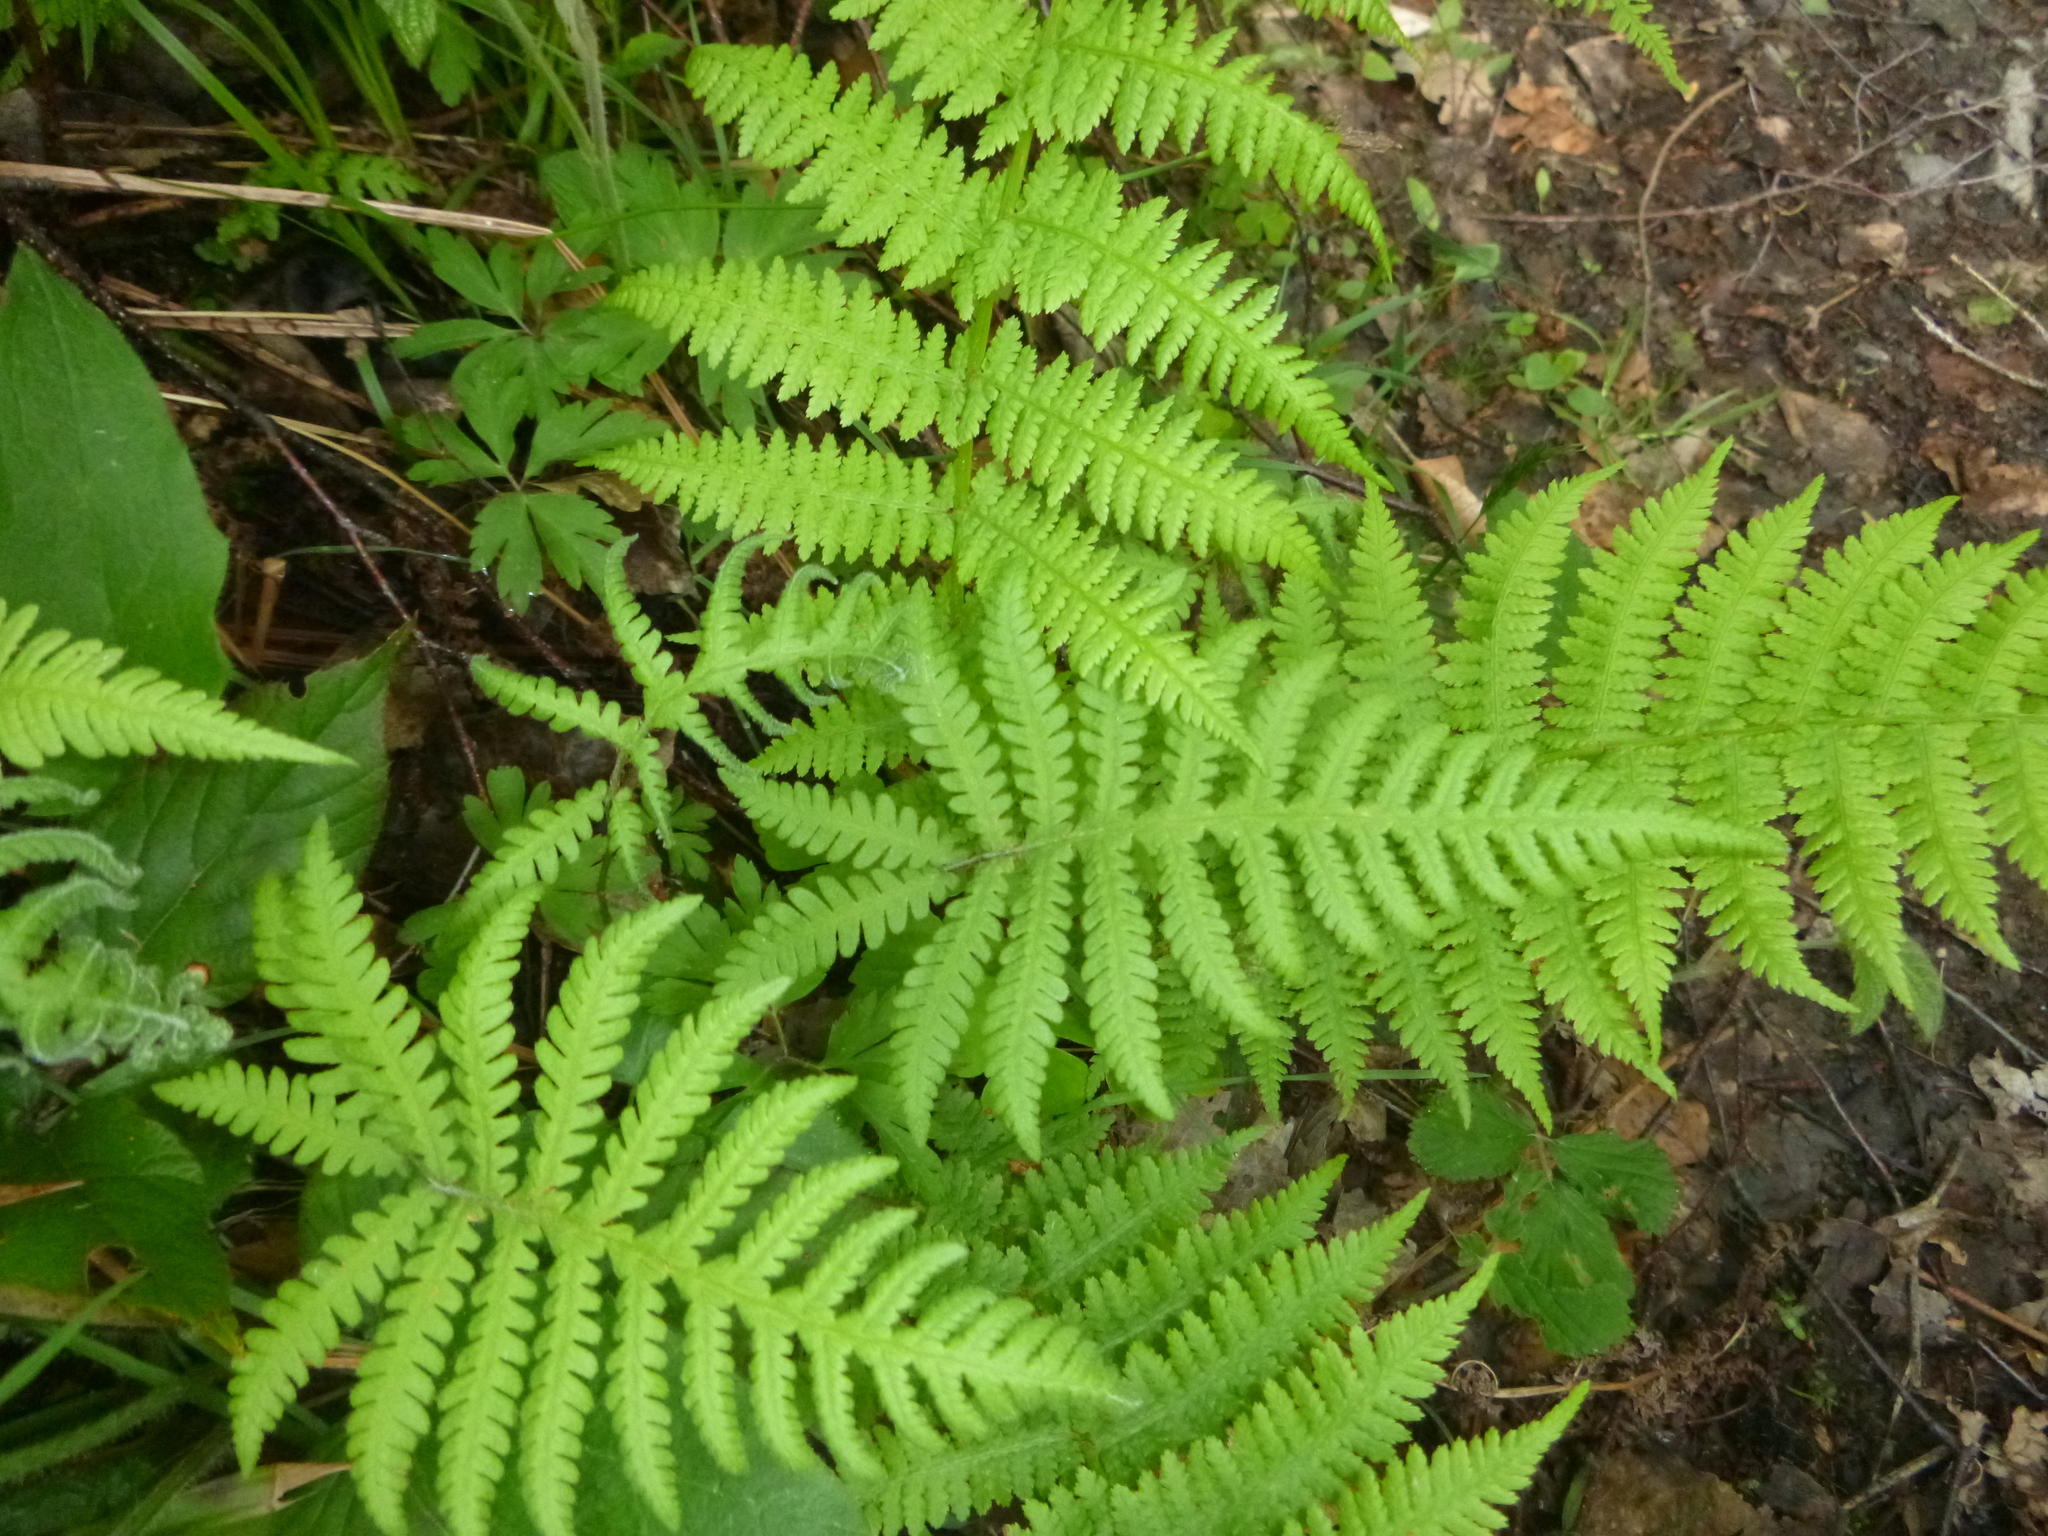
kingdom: Plantae
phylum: Tracheophyta
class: Polypodiopsida
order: Polypodiales
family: Thelypteridaceae
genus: Phegopteris
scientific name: Phegopteris connectilis
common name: Beech fern
